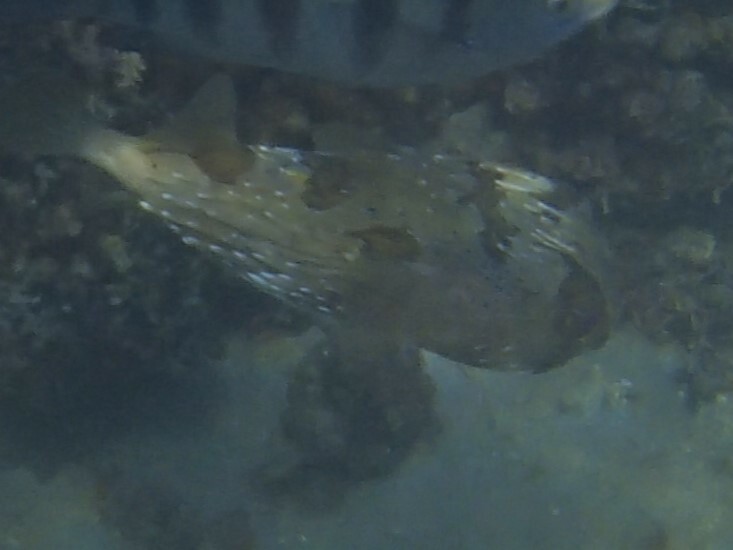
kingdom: Animalia
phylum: Chordata
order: Tetraodontiformes
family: Diodontidae
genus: Diodon
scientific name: Diodon holocanthus
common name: Balloonfish
